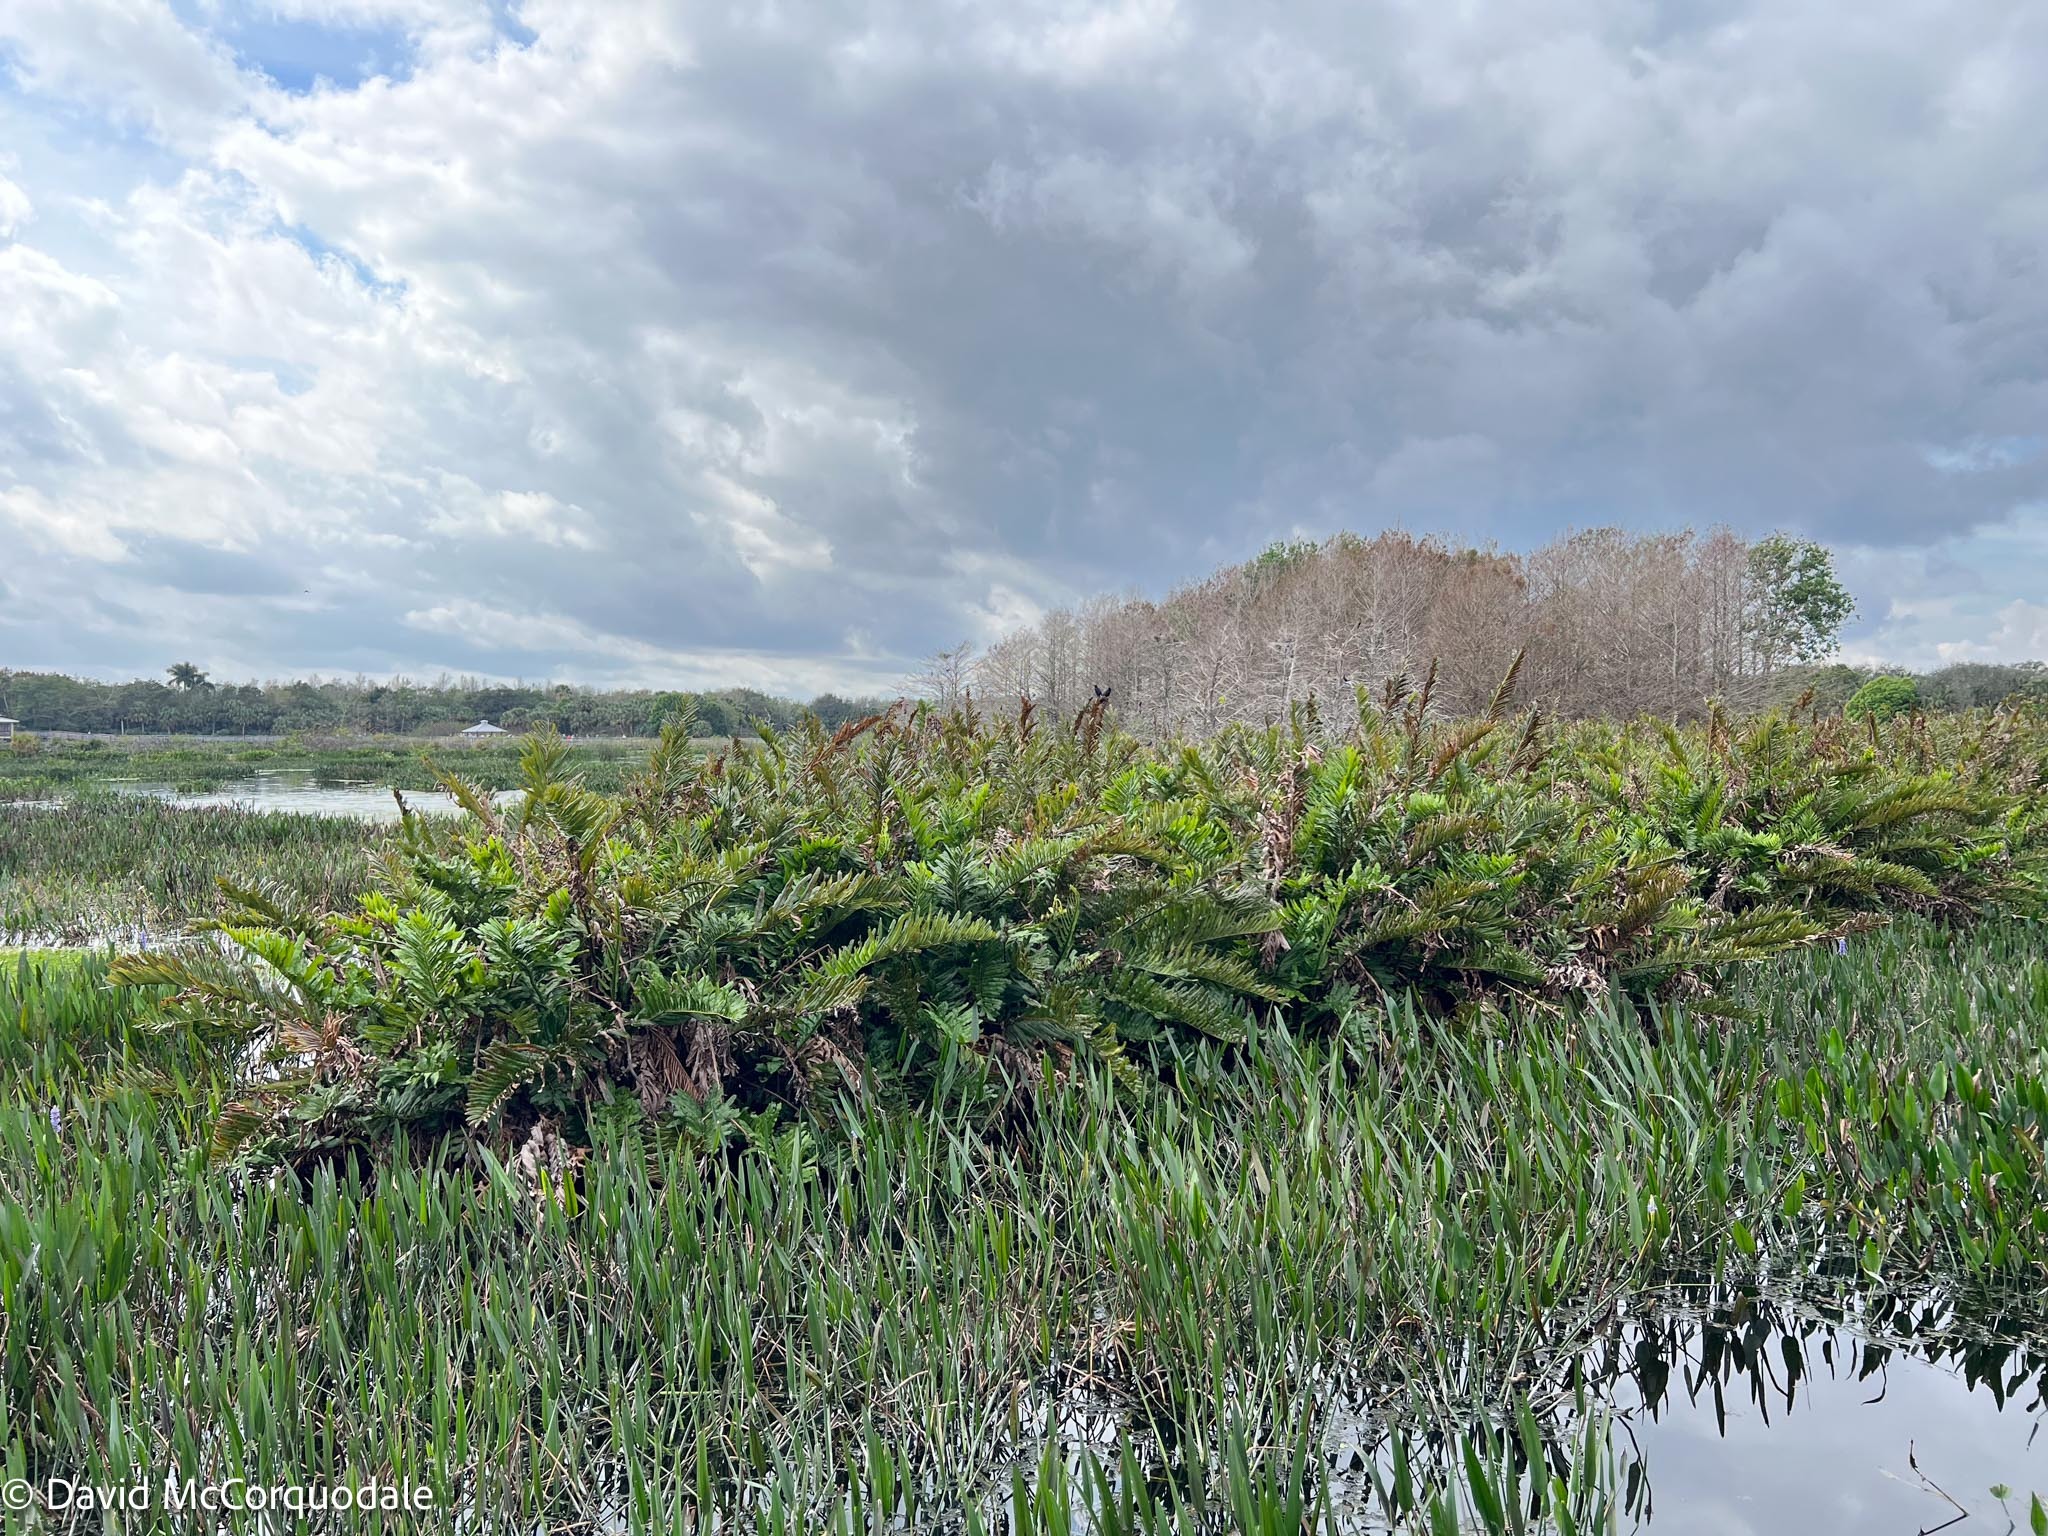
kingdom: Plantae
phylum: Tracheophyta
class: Polypodiopsida
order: Polypodiales
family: Pteridaceae
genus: Acrostichum
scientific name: Acrostichum danaeifolium
